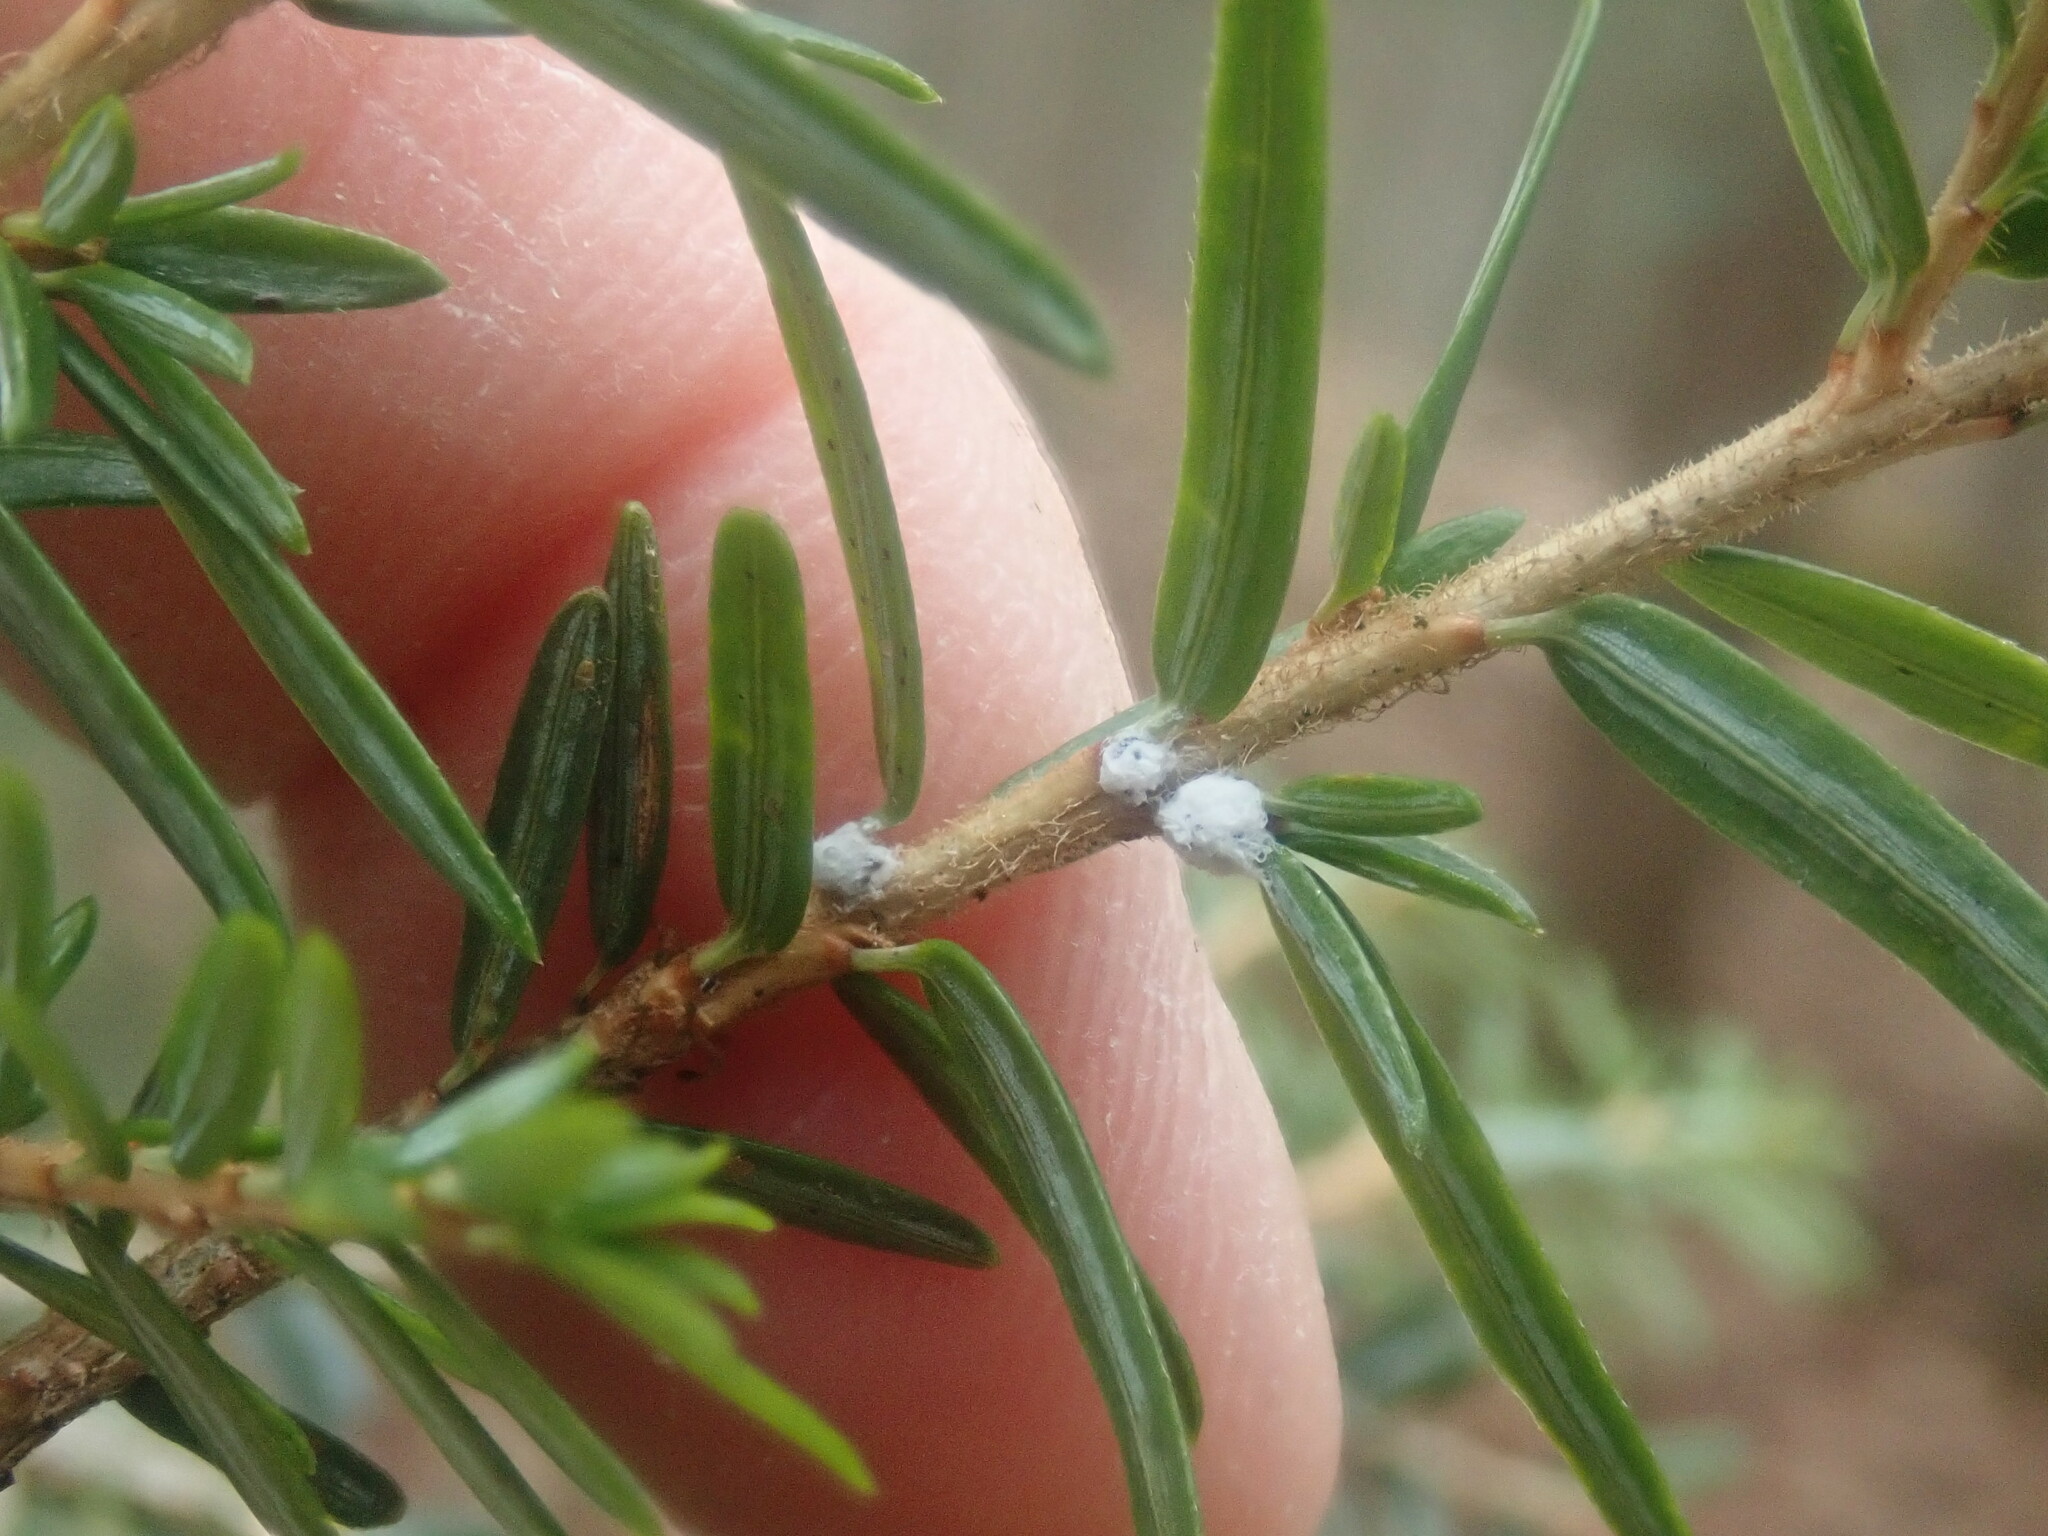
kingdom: Animalia
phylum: Arthropoda
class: Insecta
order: Hemiptera
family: Adelgidae
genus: Adelges
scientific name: Adelges tsugae
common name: Hemlock woolly adelgid
